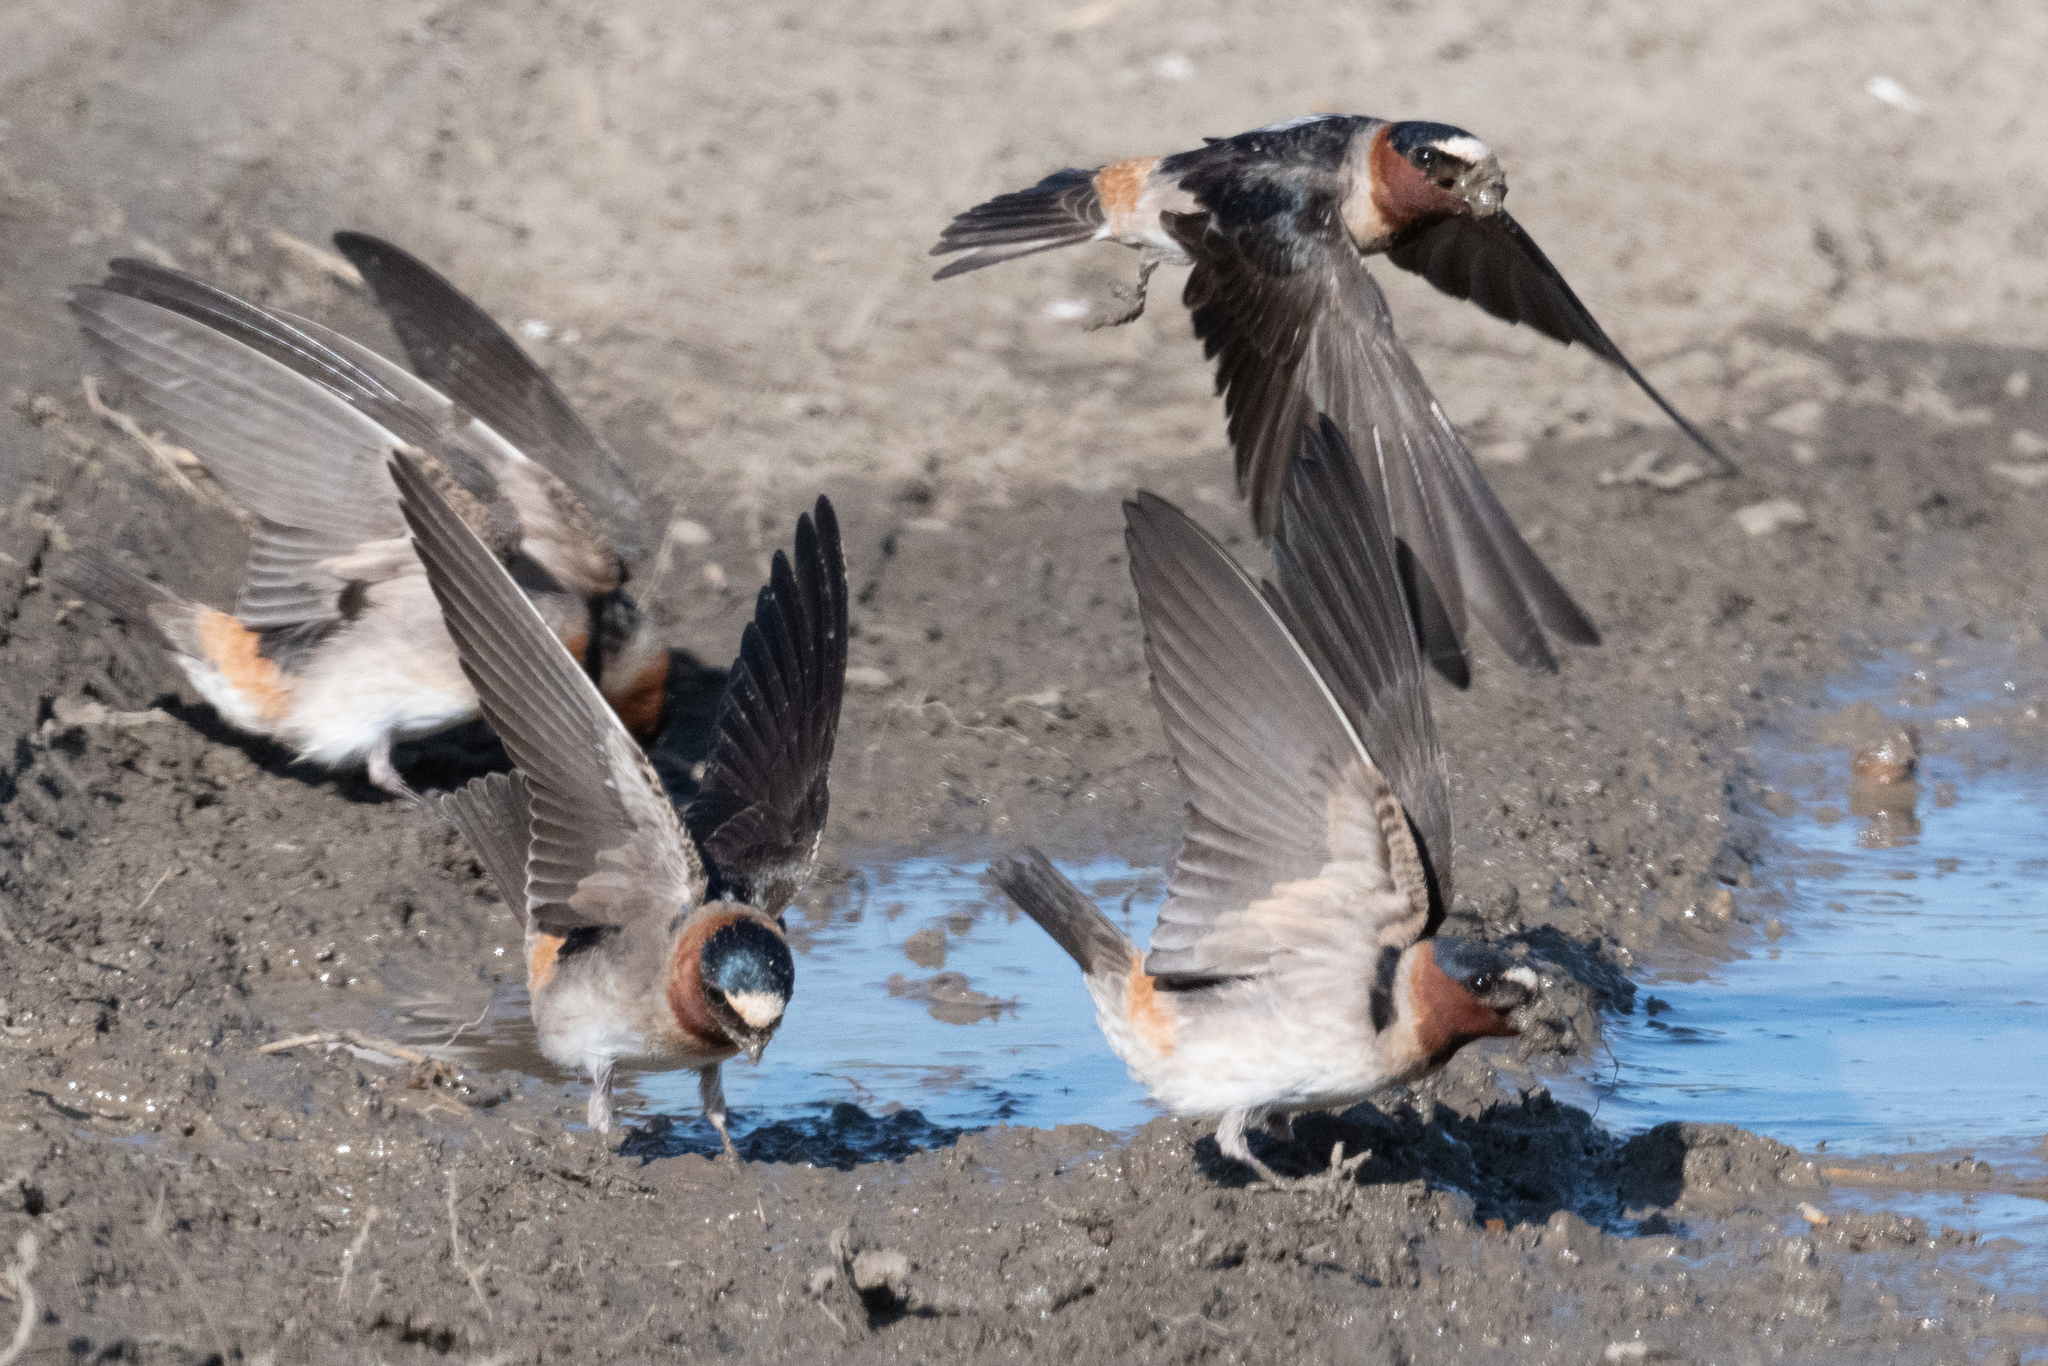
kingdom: Animalia
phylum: Chordata
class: Aves
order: Passeriformes
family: Hirundinidae
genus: Petrochelidon
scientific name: Petrochelidon pyrrhonota
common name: American cliff swallow
